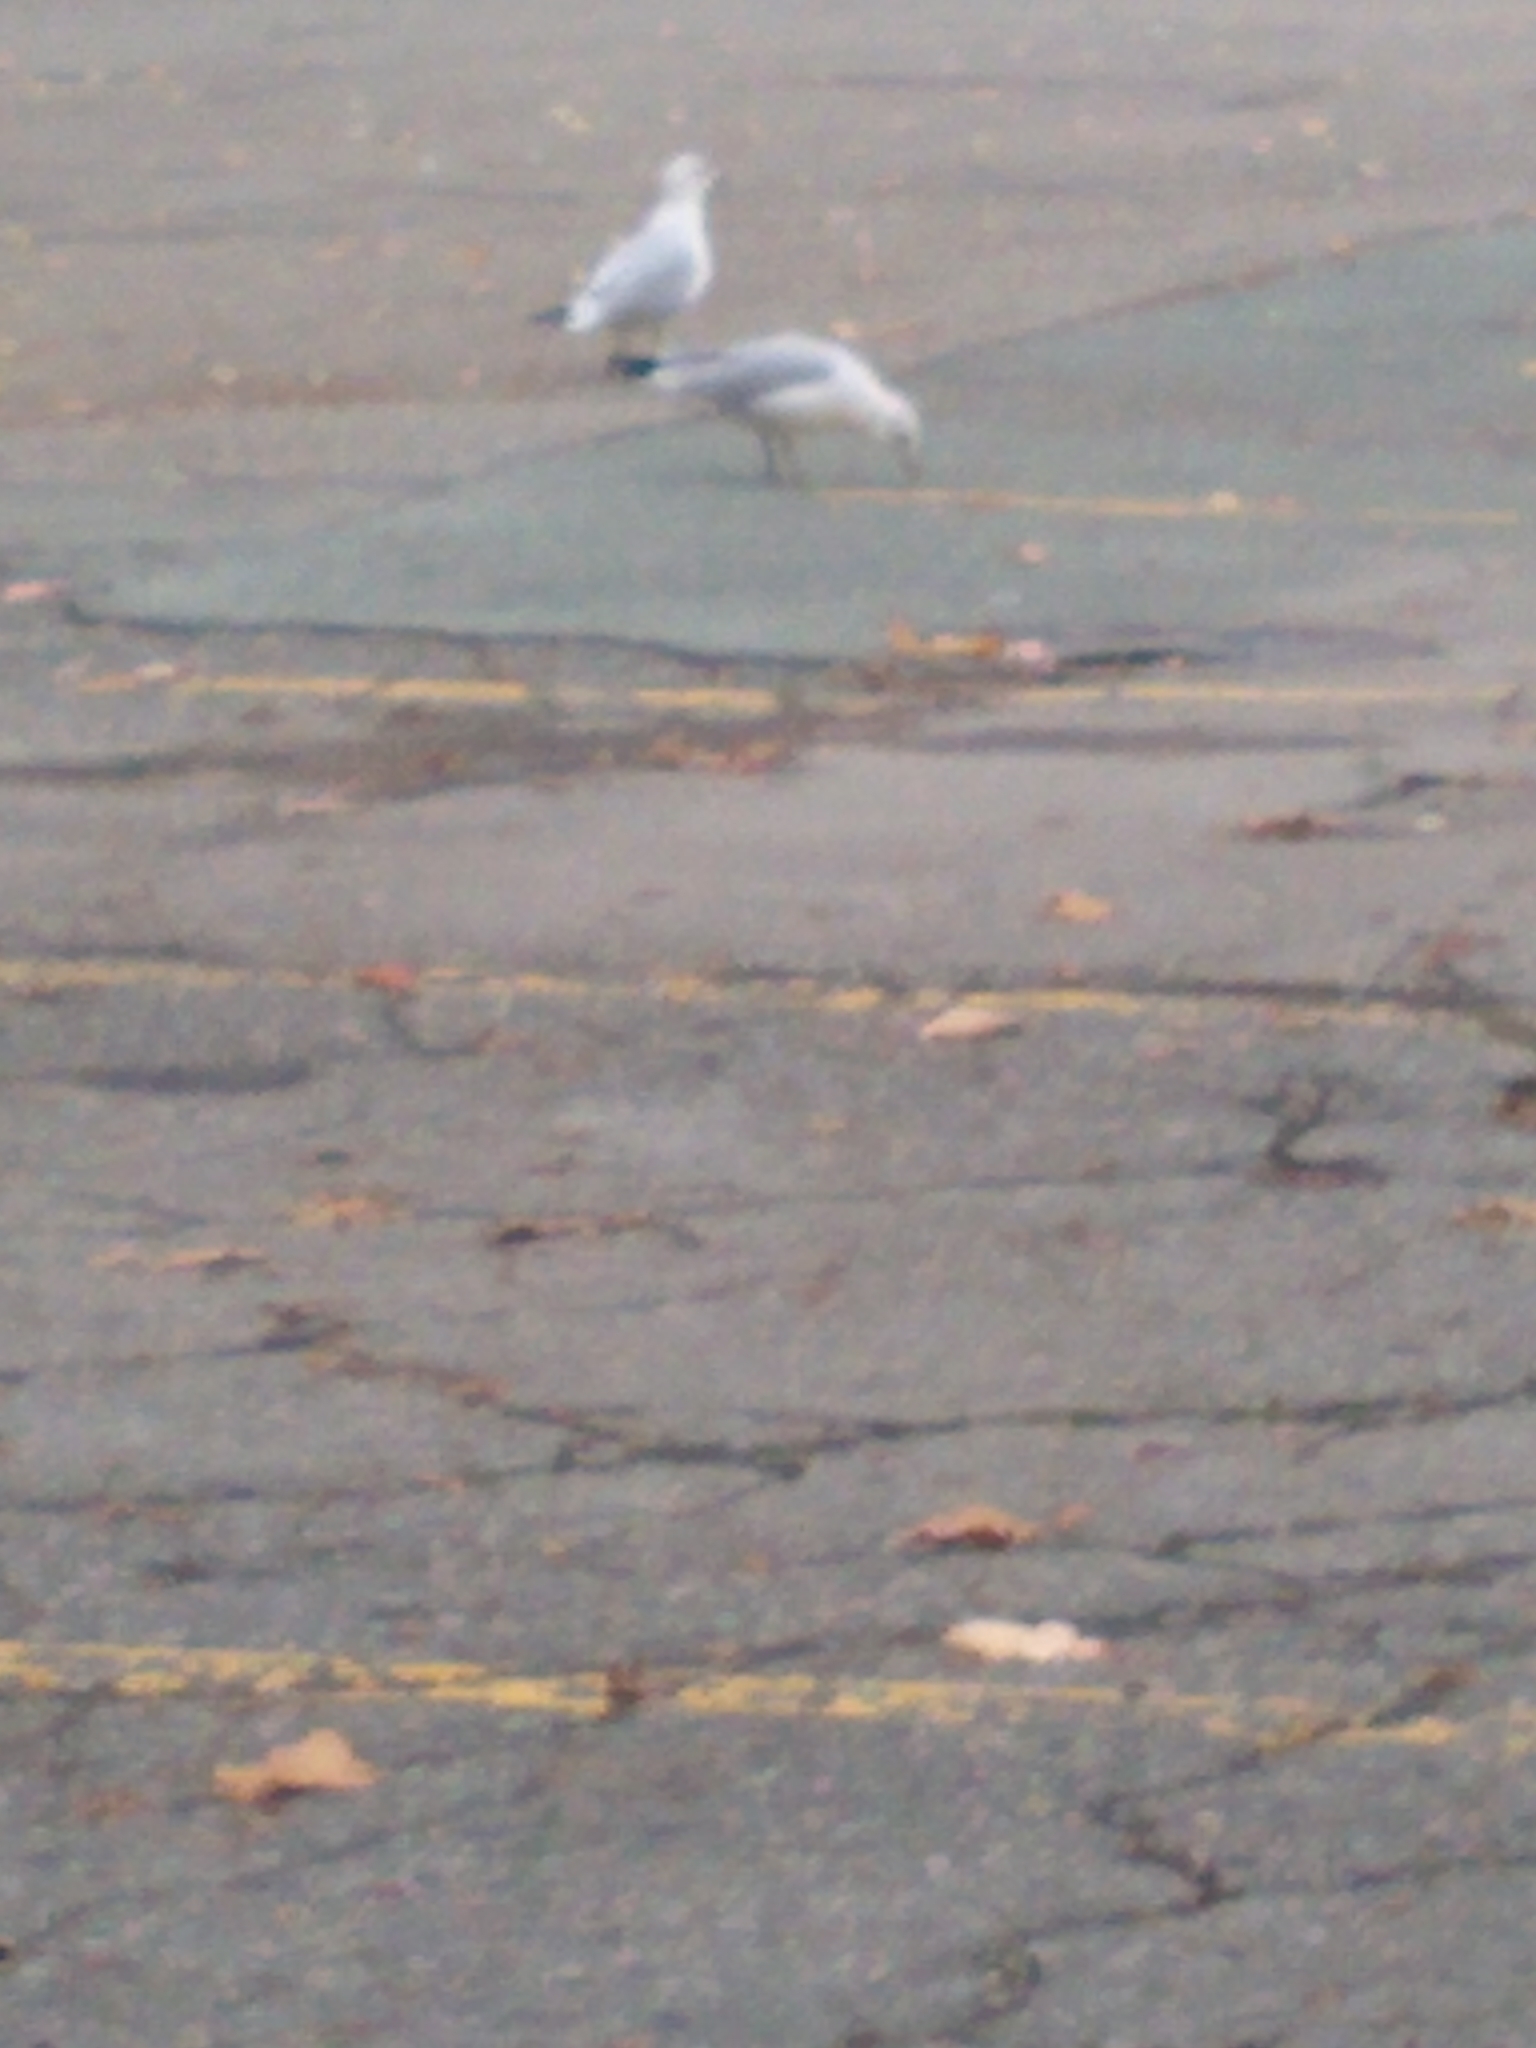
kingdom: Animalia
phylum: Chordata
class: Aves
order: Charadriiformes
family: Laridae
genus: Larus
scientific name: Larus delawarensis
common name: Ring-billed gull
